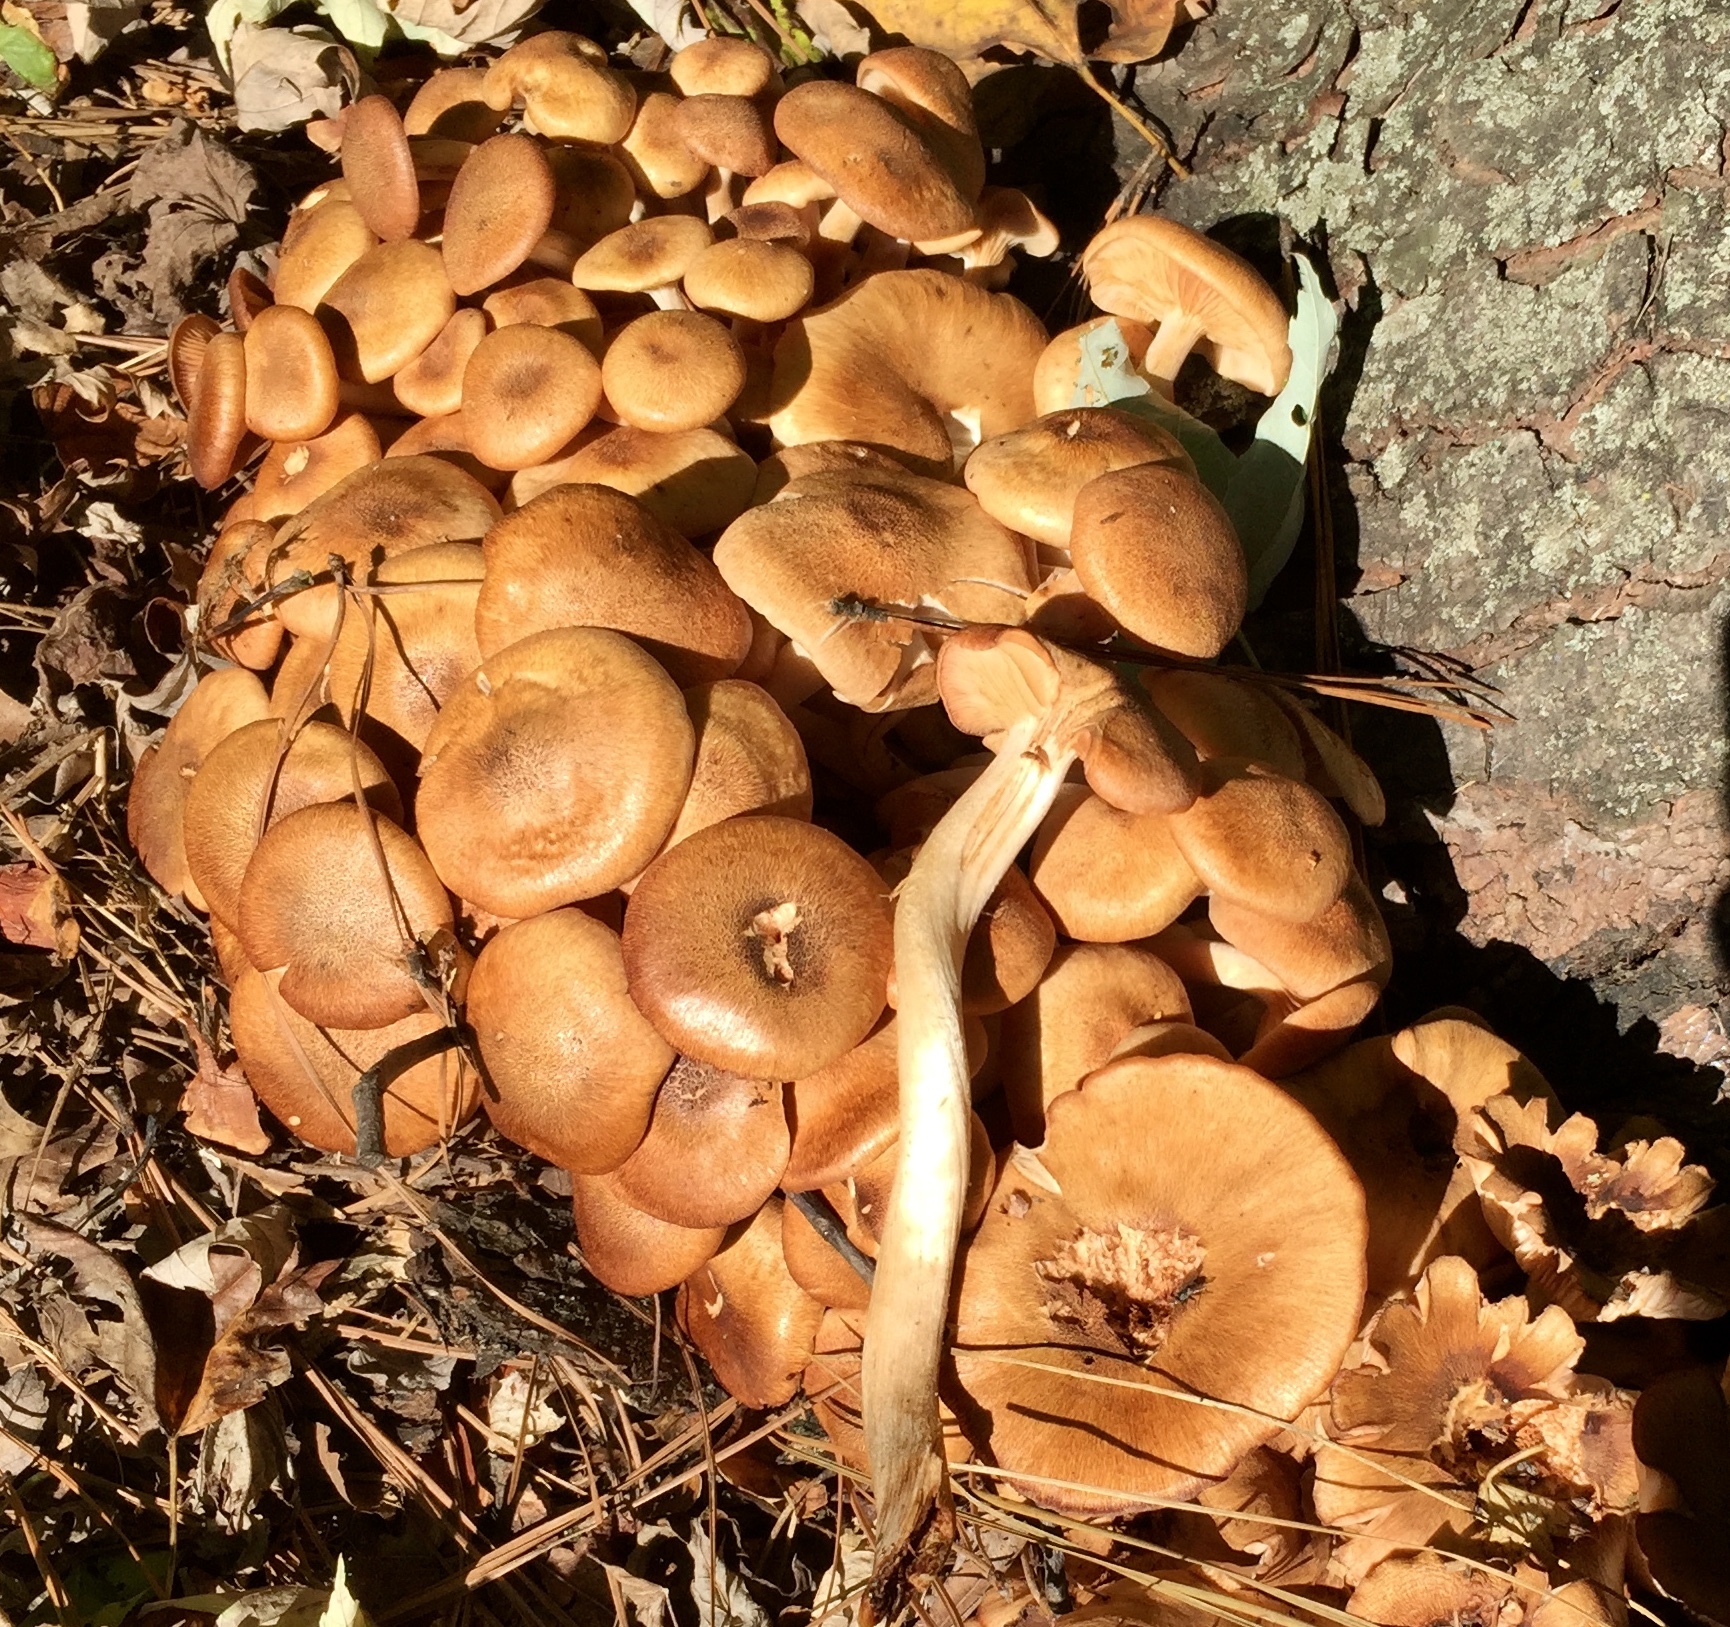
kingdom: Fungi
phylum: Basidiomycota
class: Agaricomycetes
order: Agaricales
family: Physalacriaceae
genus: Desarmillaria
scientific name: Desarmillaria caespitosa
